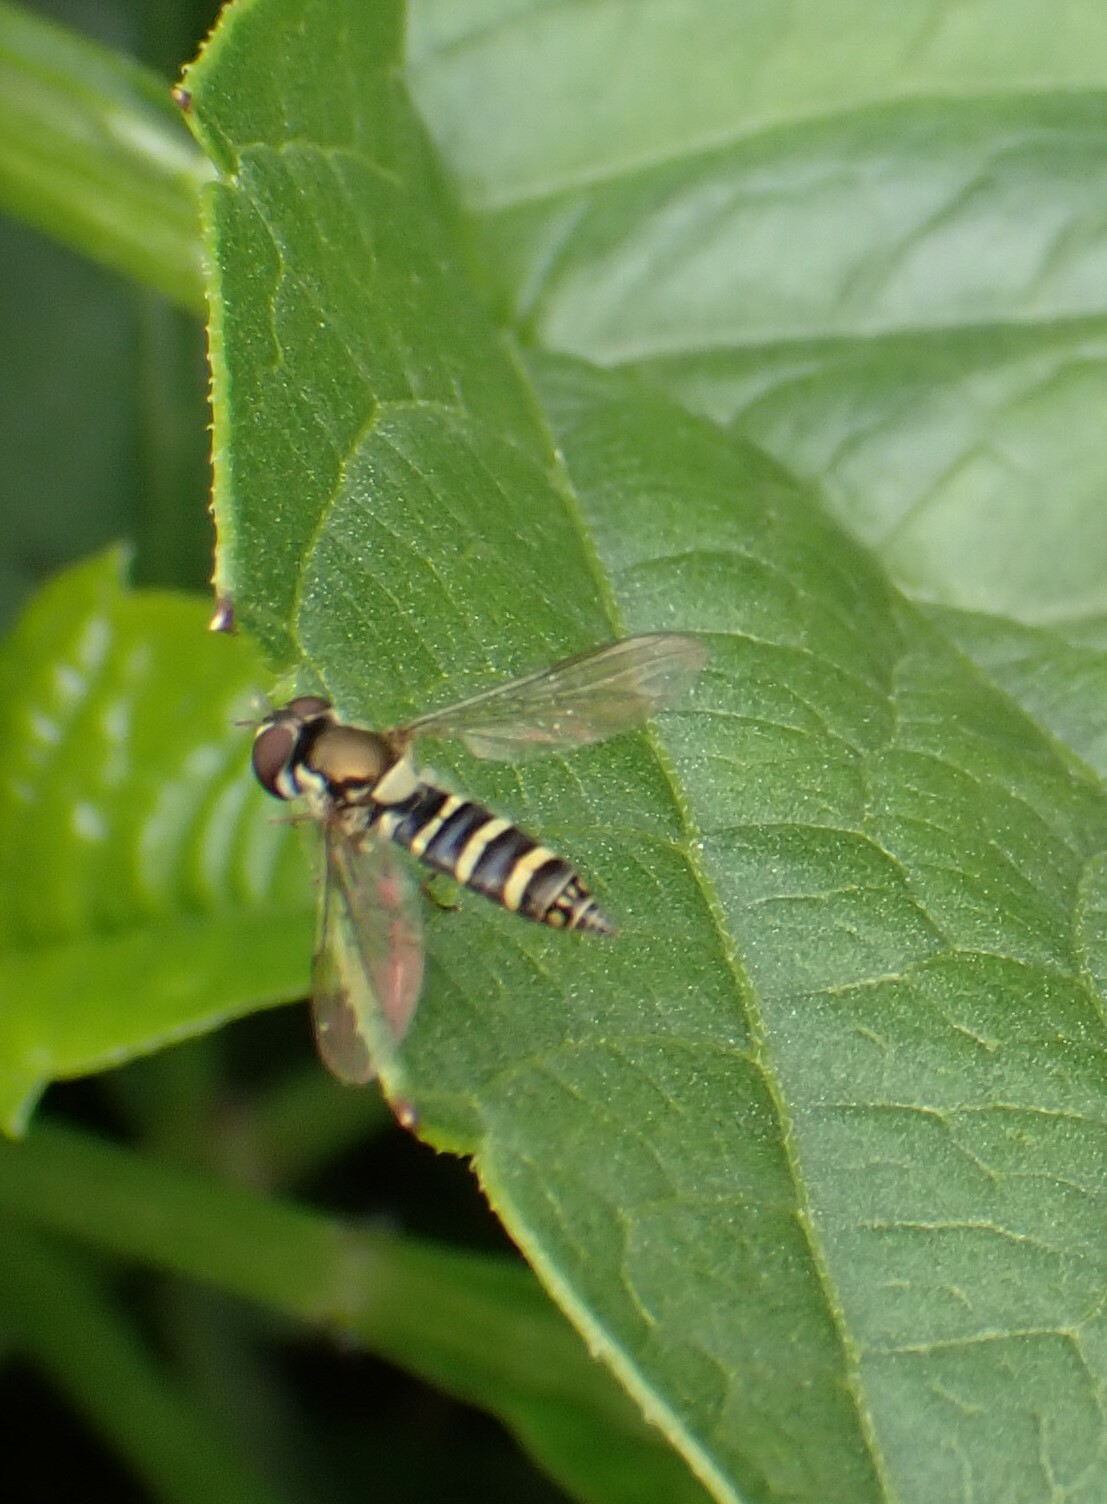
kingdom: Animalia
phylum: Arthropoda
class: Insecta
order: Diptera
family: Syrphidae
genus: Fazia
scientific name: Fazia micrura
